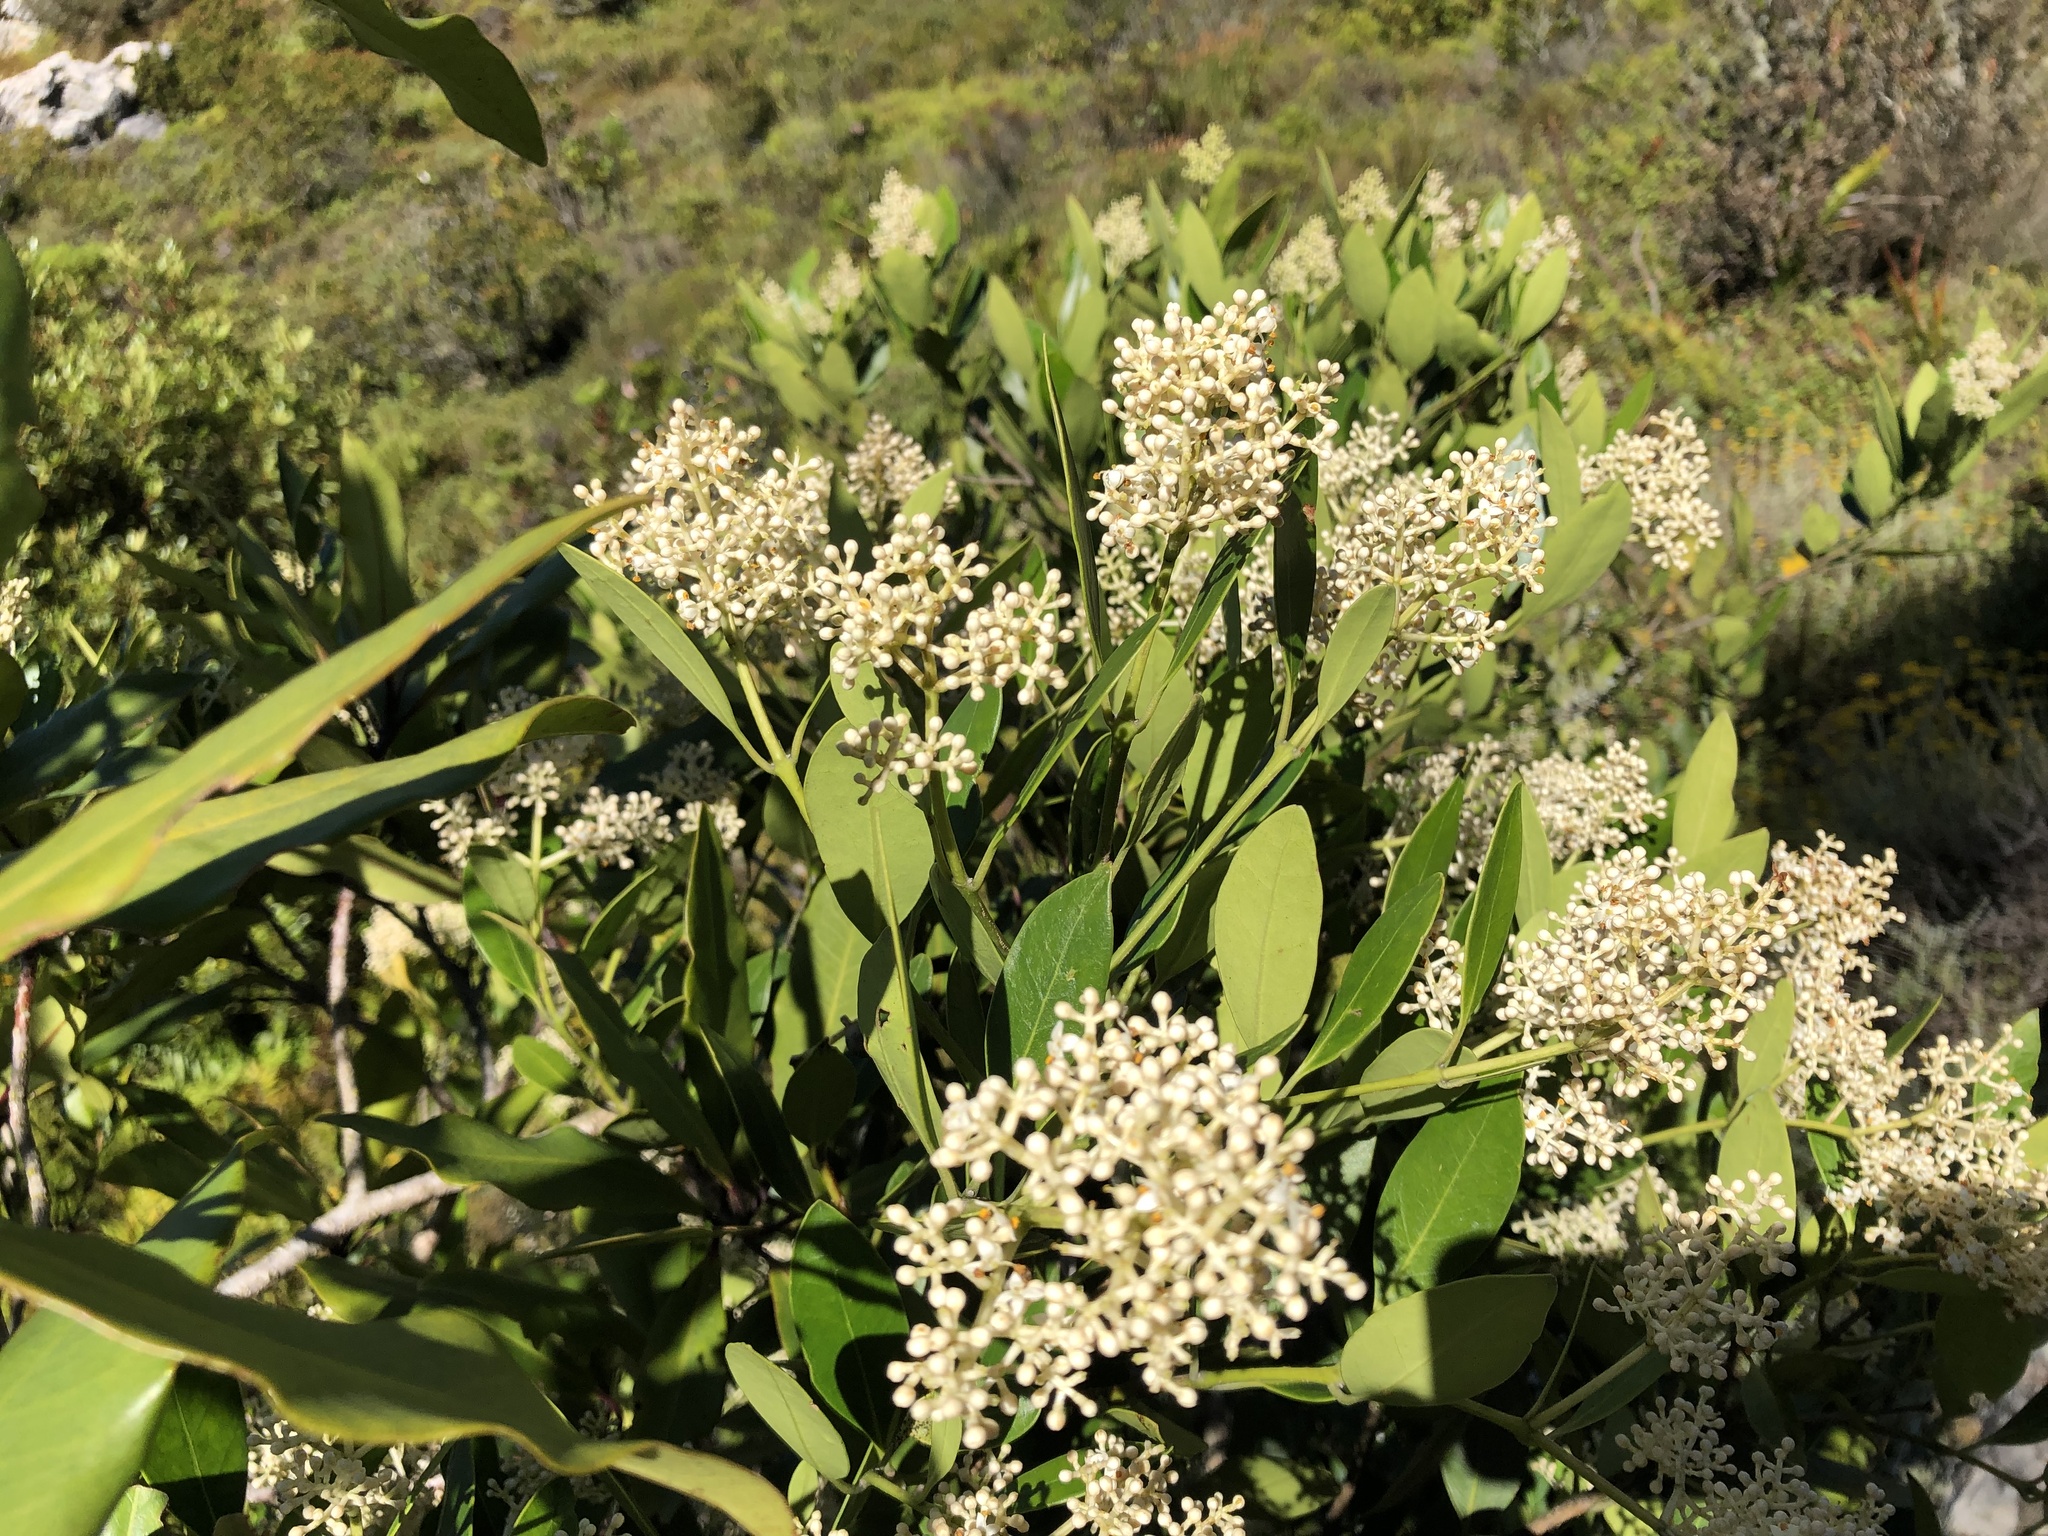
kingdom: Plantae
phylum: Tracheophyta
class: Magnoliopsida
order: Lamiales
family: Oleaceae
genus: Olea
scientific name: Olea capensis
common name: Black ironwood
